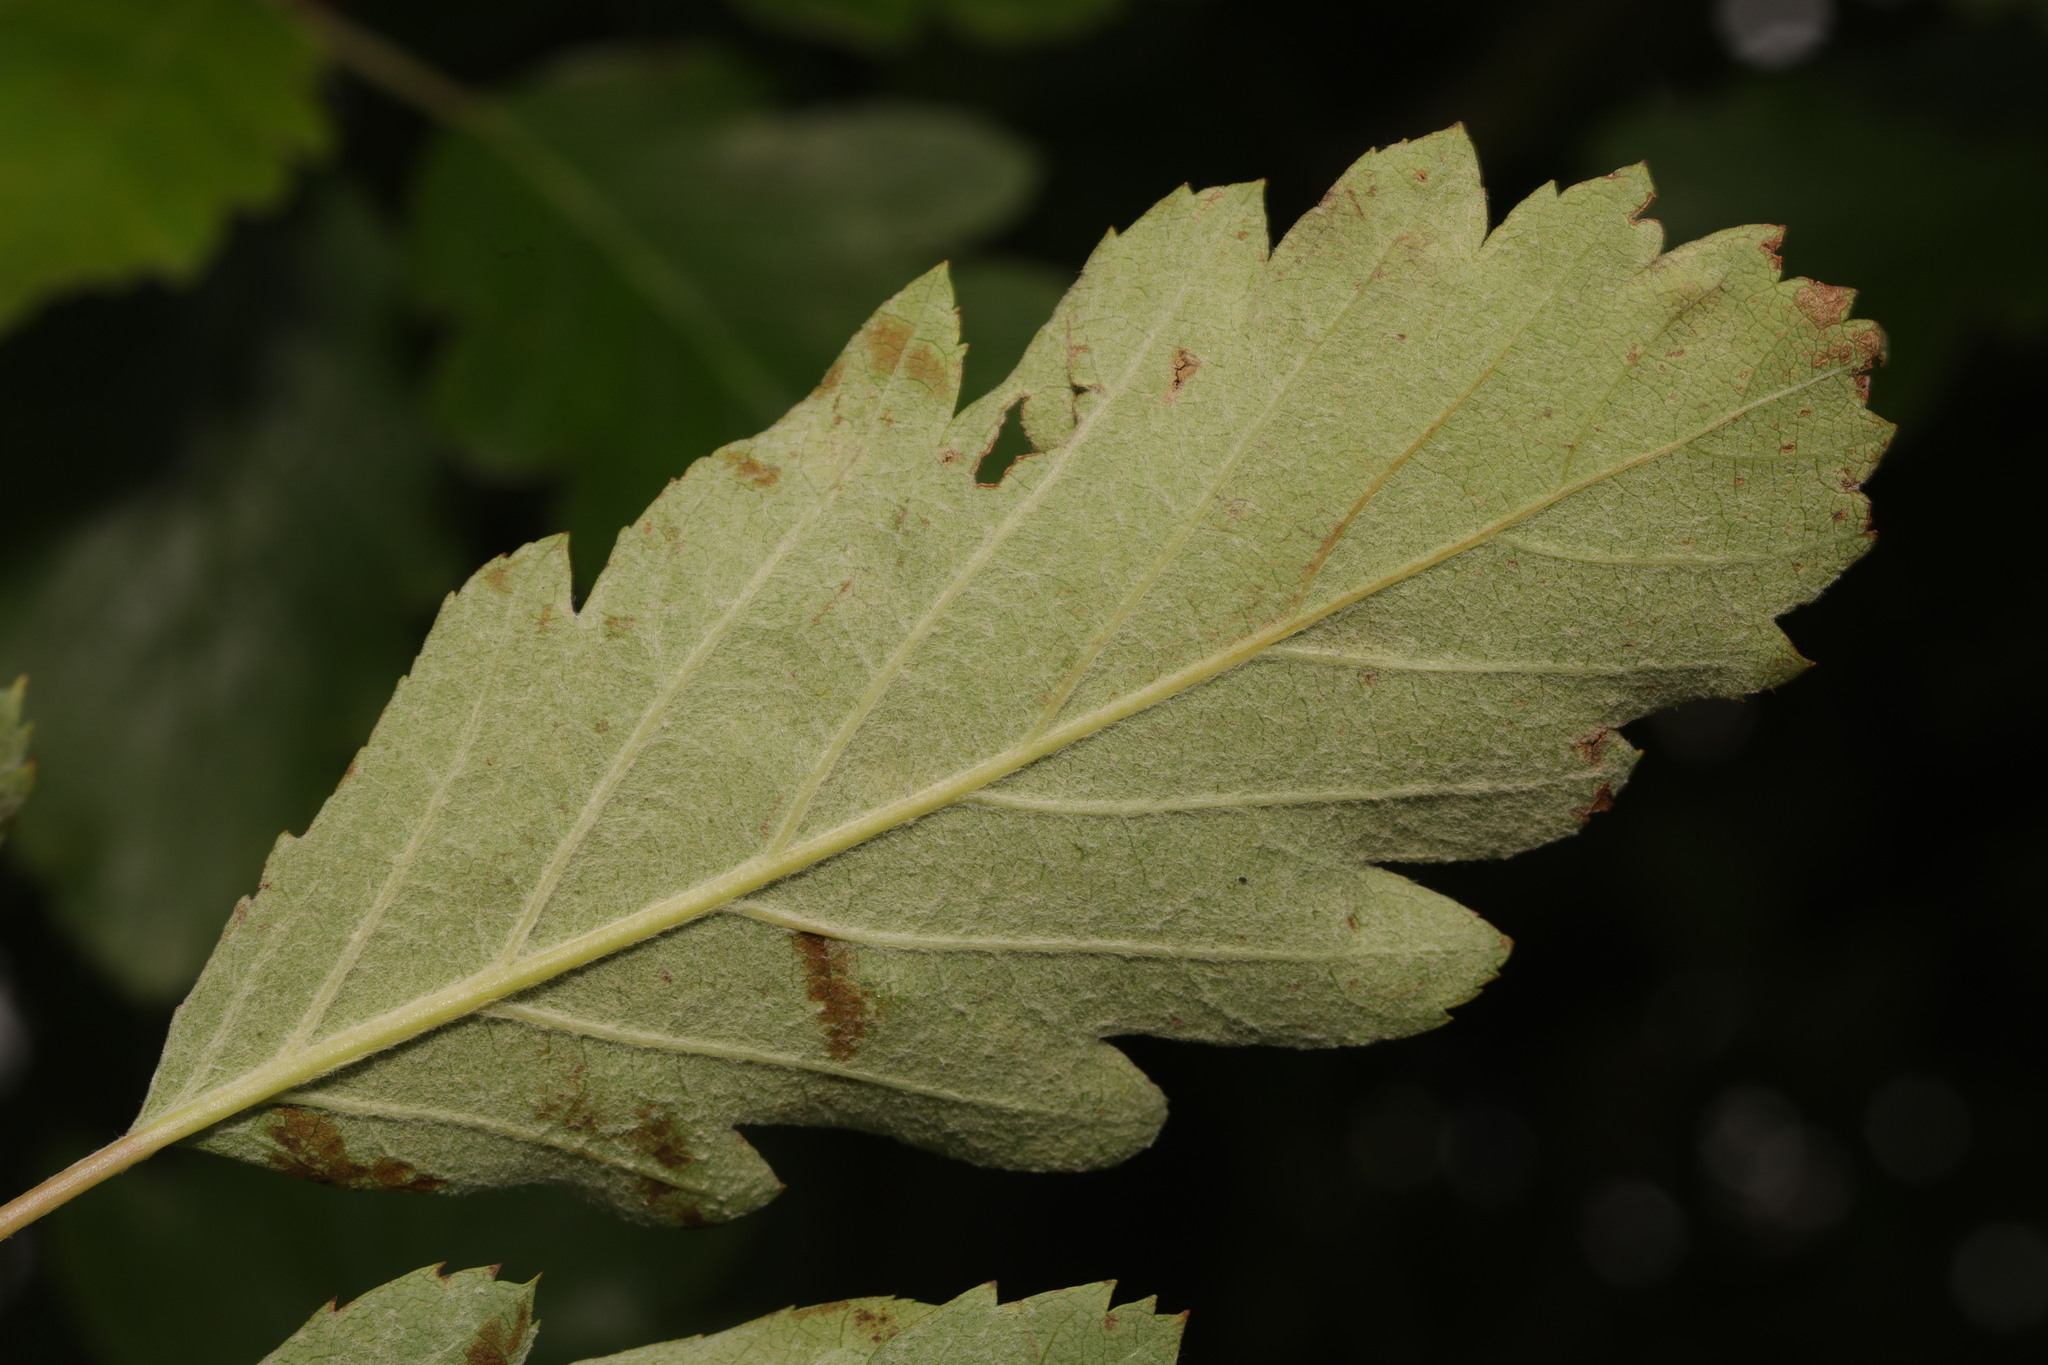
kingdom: Plantae
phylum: Tracheophyta
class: Magnoliopsida
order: Rosales
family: Rosaceae
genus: Scandosorbus
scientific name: Scandosorbus intermedia
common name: Swedish whitebeam
